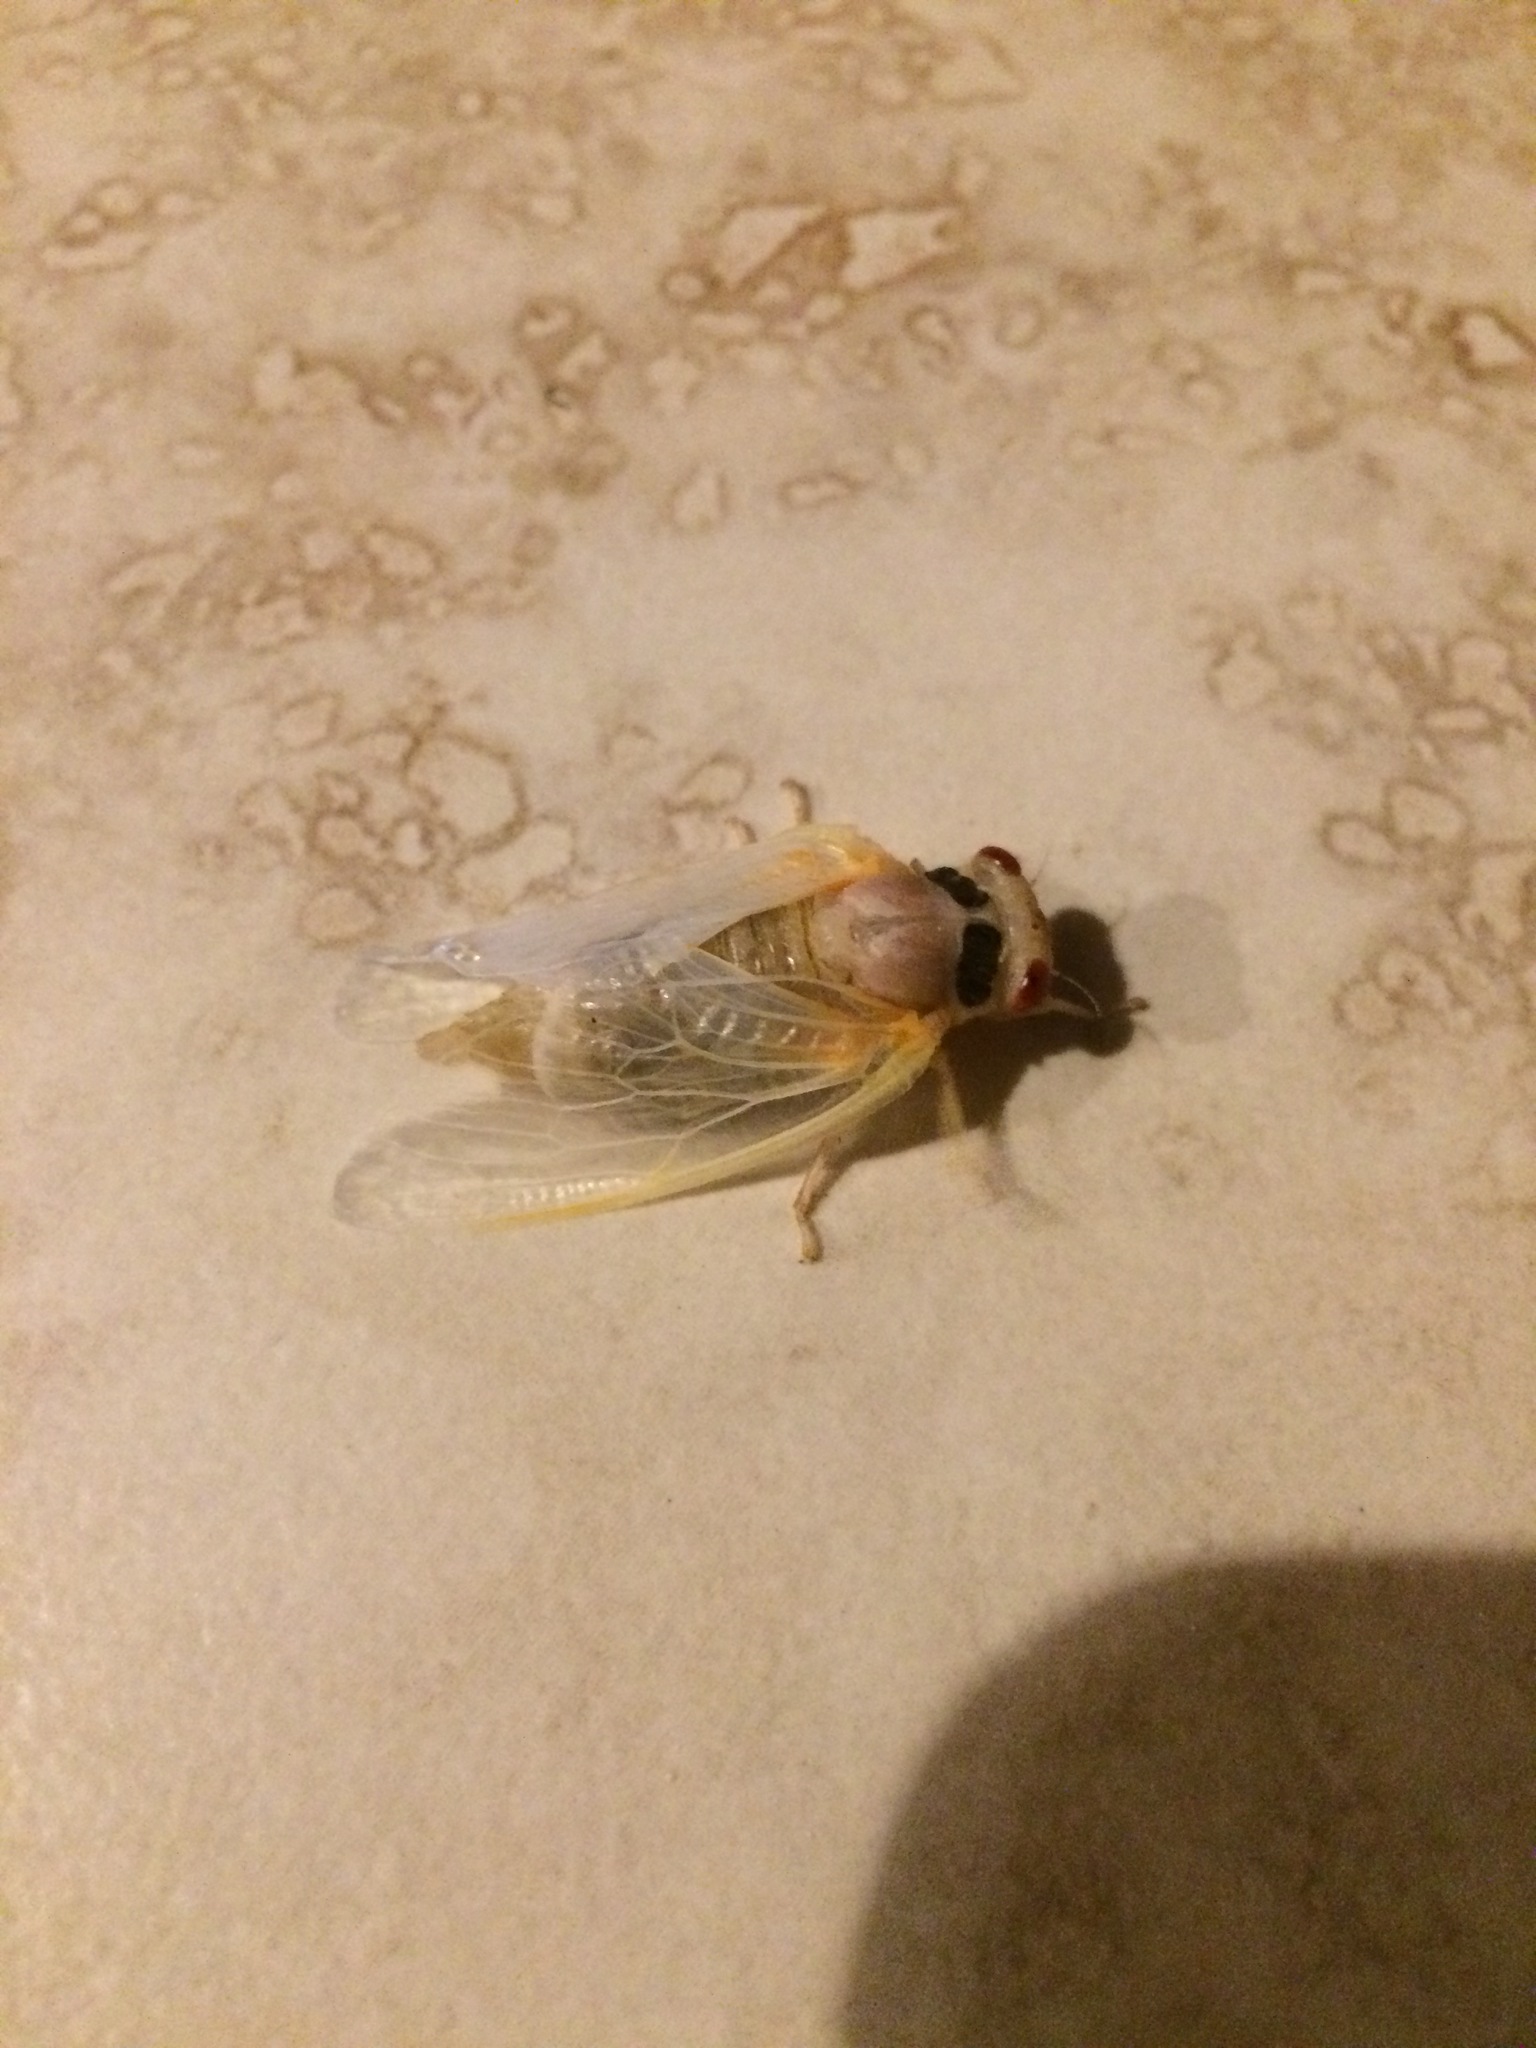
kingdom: Animalia
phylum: Arthropoda
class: Insecta
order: Hemiptera
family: Cicadidae
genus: Magicicada
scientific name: Magicicada
